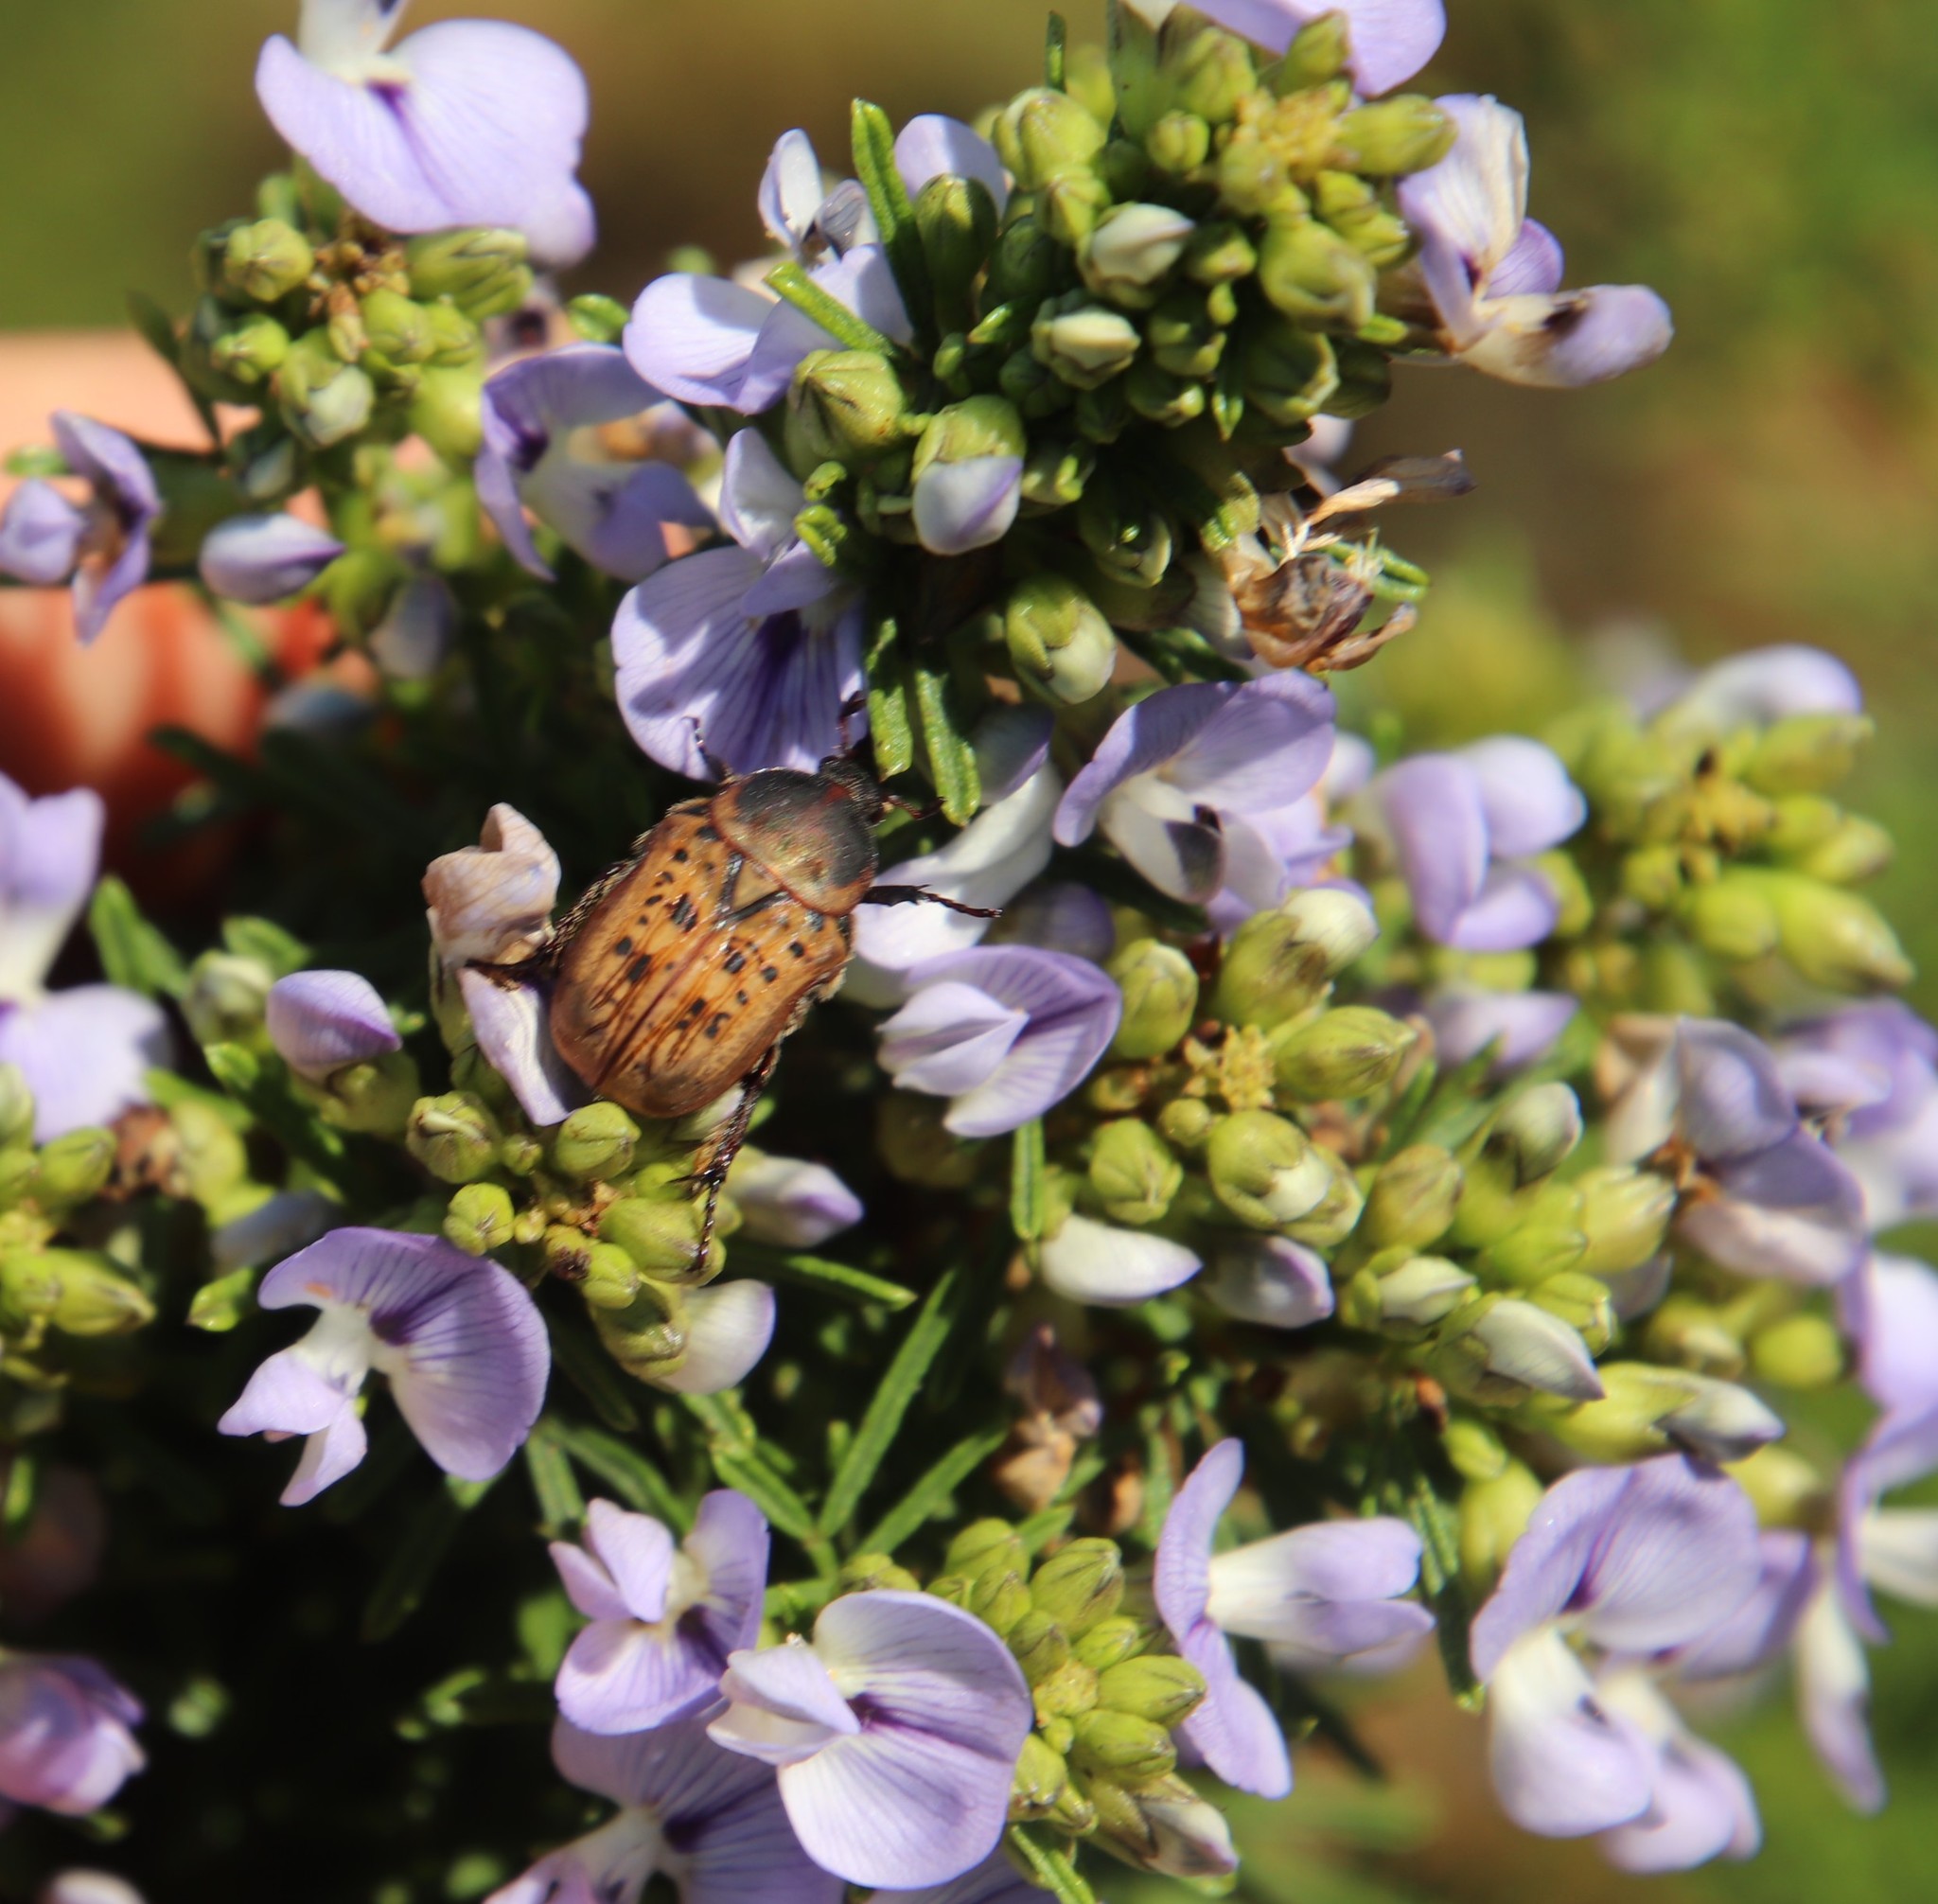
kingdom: Animalia
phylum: Arthropoda
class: Insecta
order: Coleoptera
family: Scarabaeidae
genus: Elaphinis
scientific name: Elaphinis delagoensis
